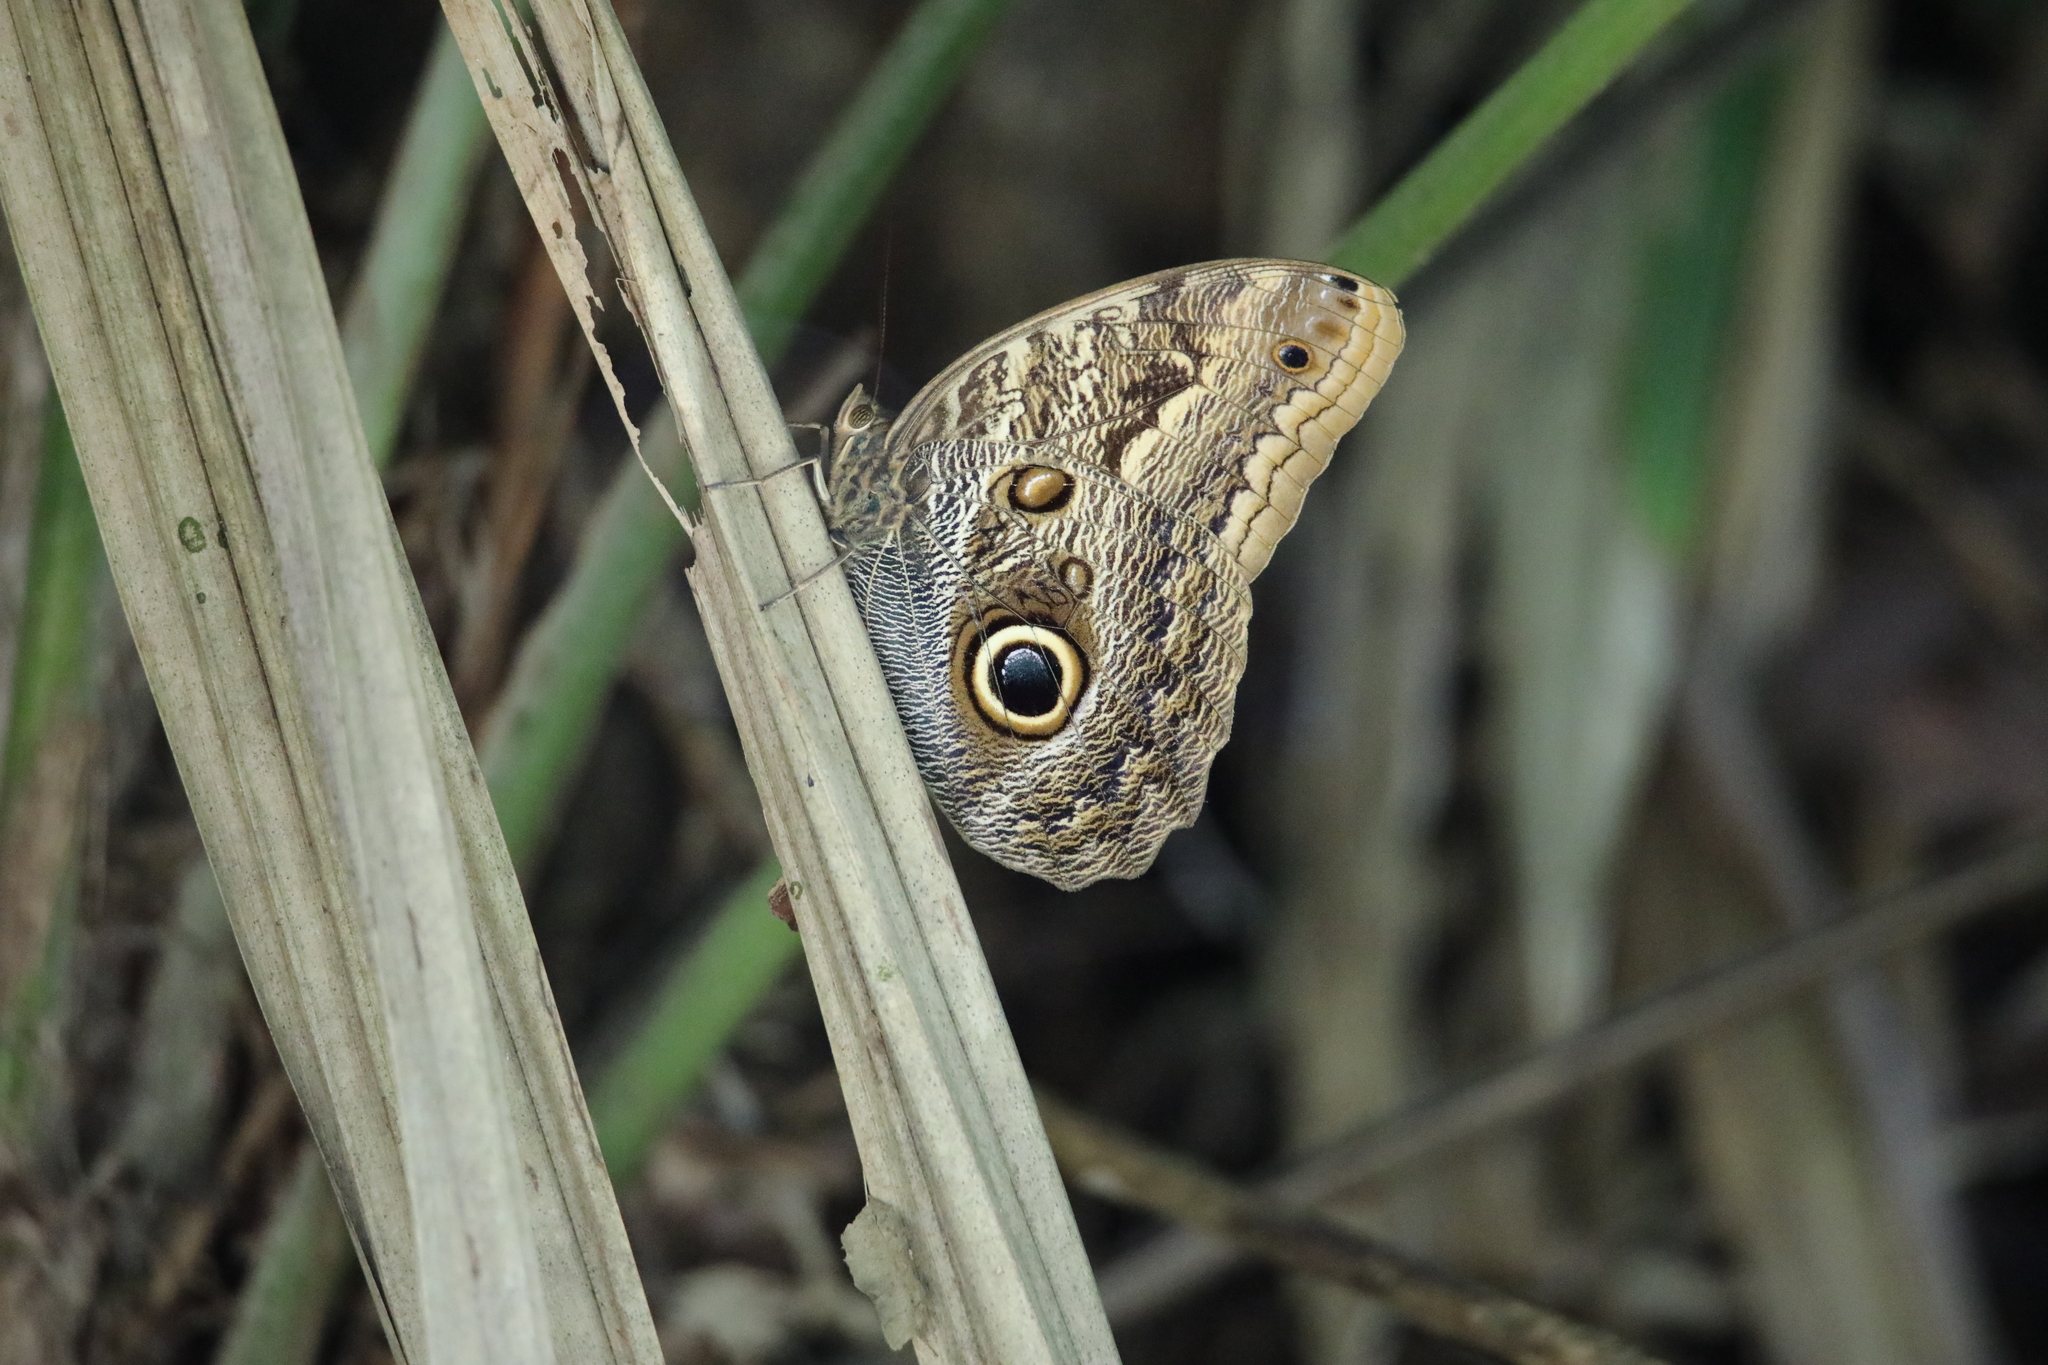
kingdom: Animalia
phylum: Arthropoda
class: Insecta
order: Lepidoptera
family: Nymphalidae
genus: Caligo
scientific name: Caligo telamonius
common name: Pale owl-butterfly
